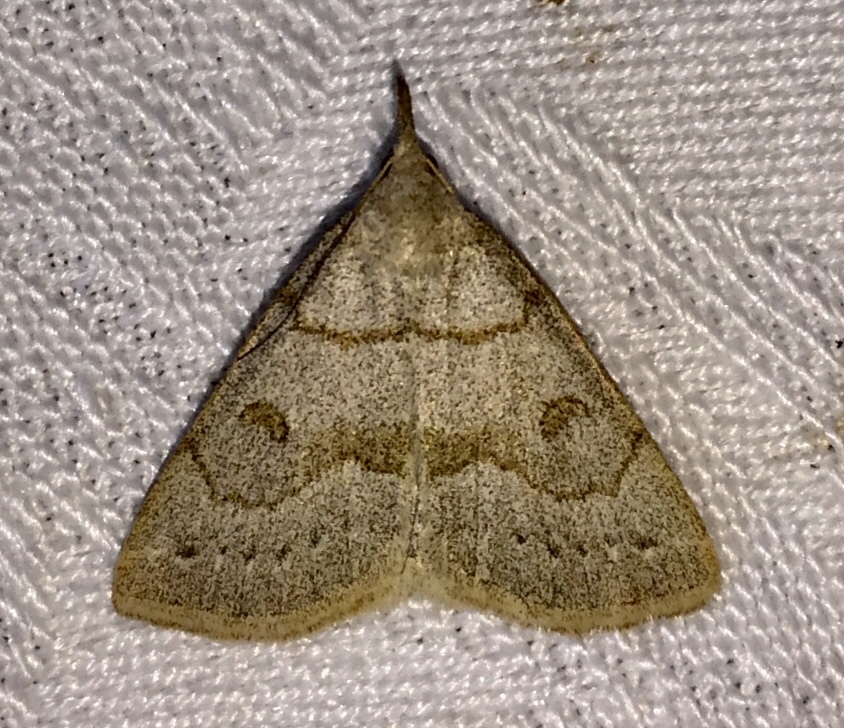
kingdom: Animalia
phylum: Arthropoda
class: Insecta
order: Lepidoptera
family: Erebidae
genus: Macrochilo
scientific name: Macrochilo morbidalis
